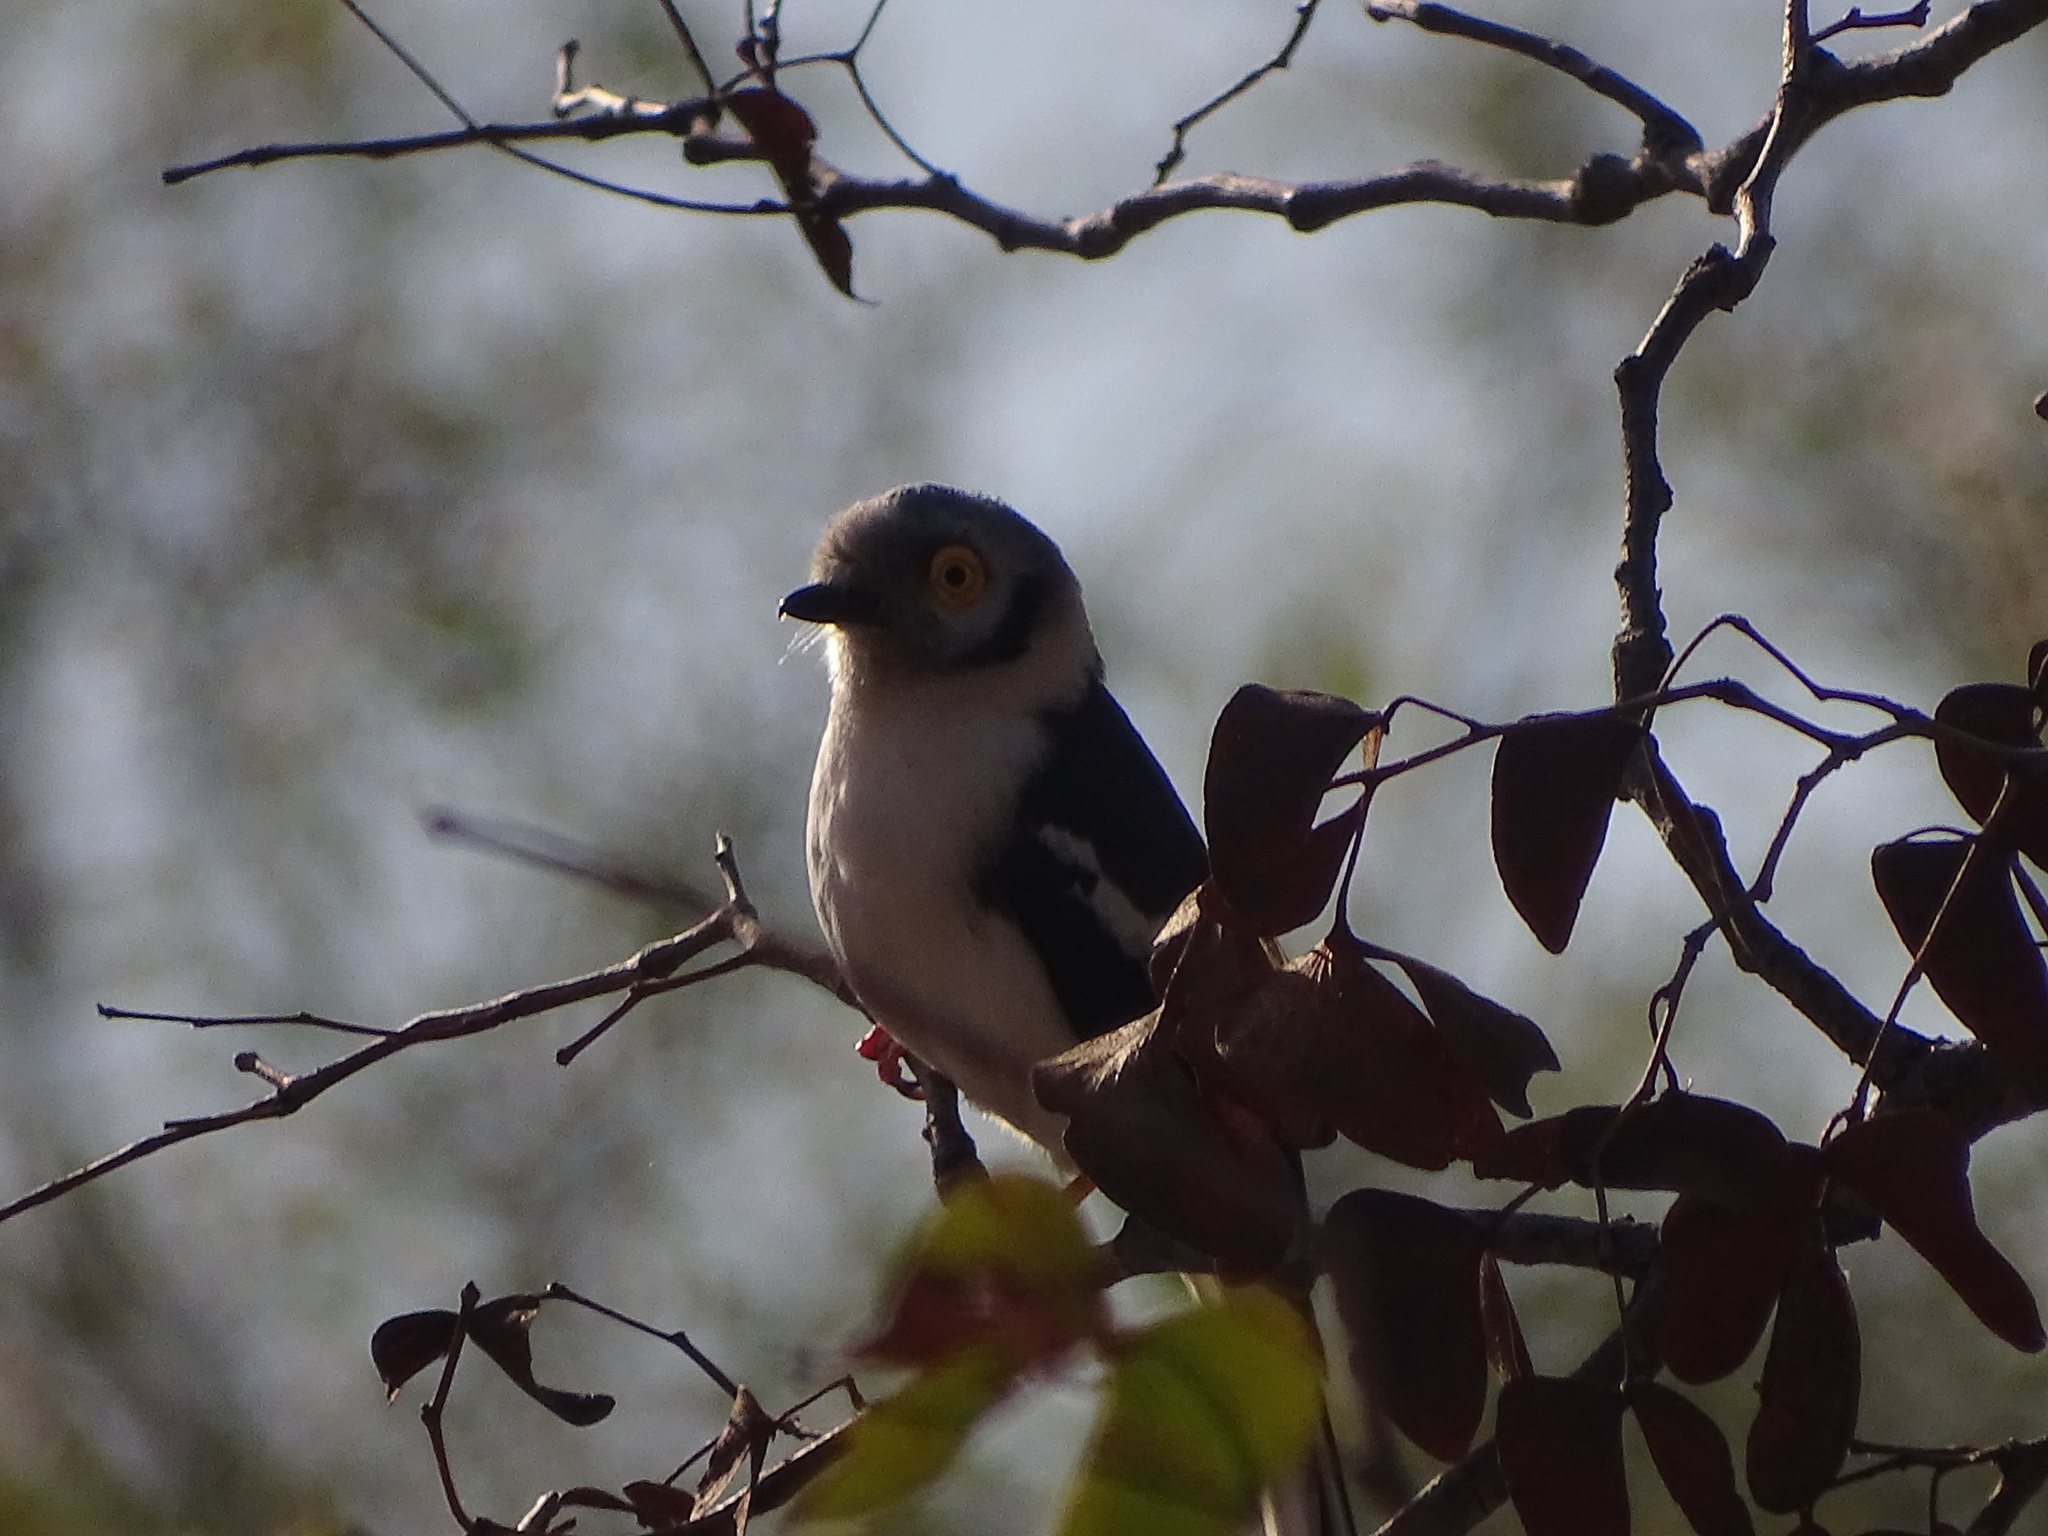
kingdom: Animalia
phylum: Chordata
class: Aves
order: Passeriformes
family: Prionopidae
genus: Prionops
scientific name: Prionops plumatus
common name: White-crested helmetshrike
